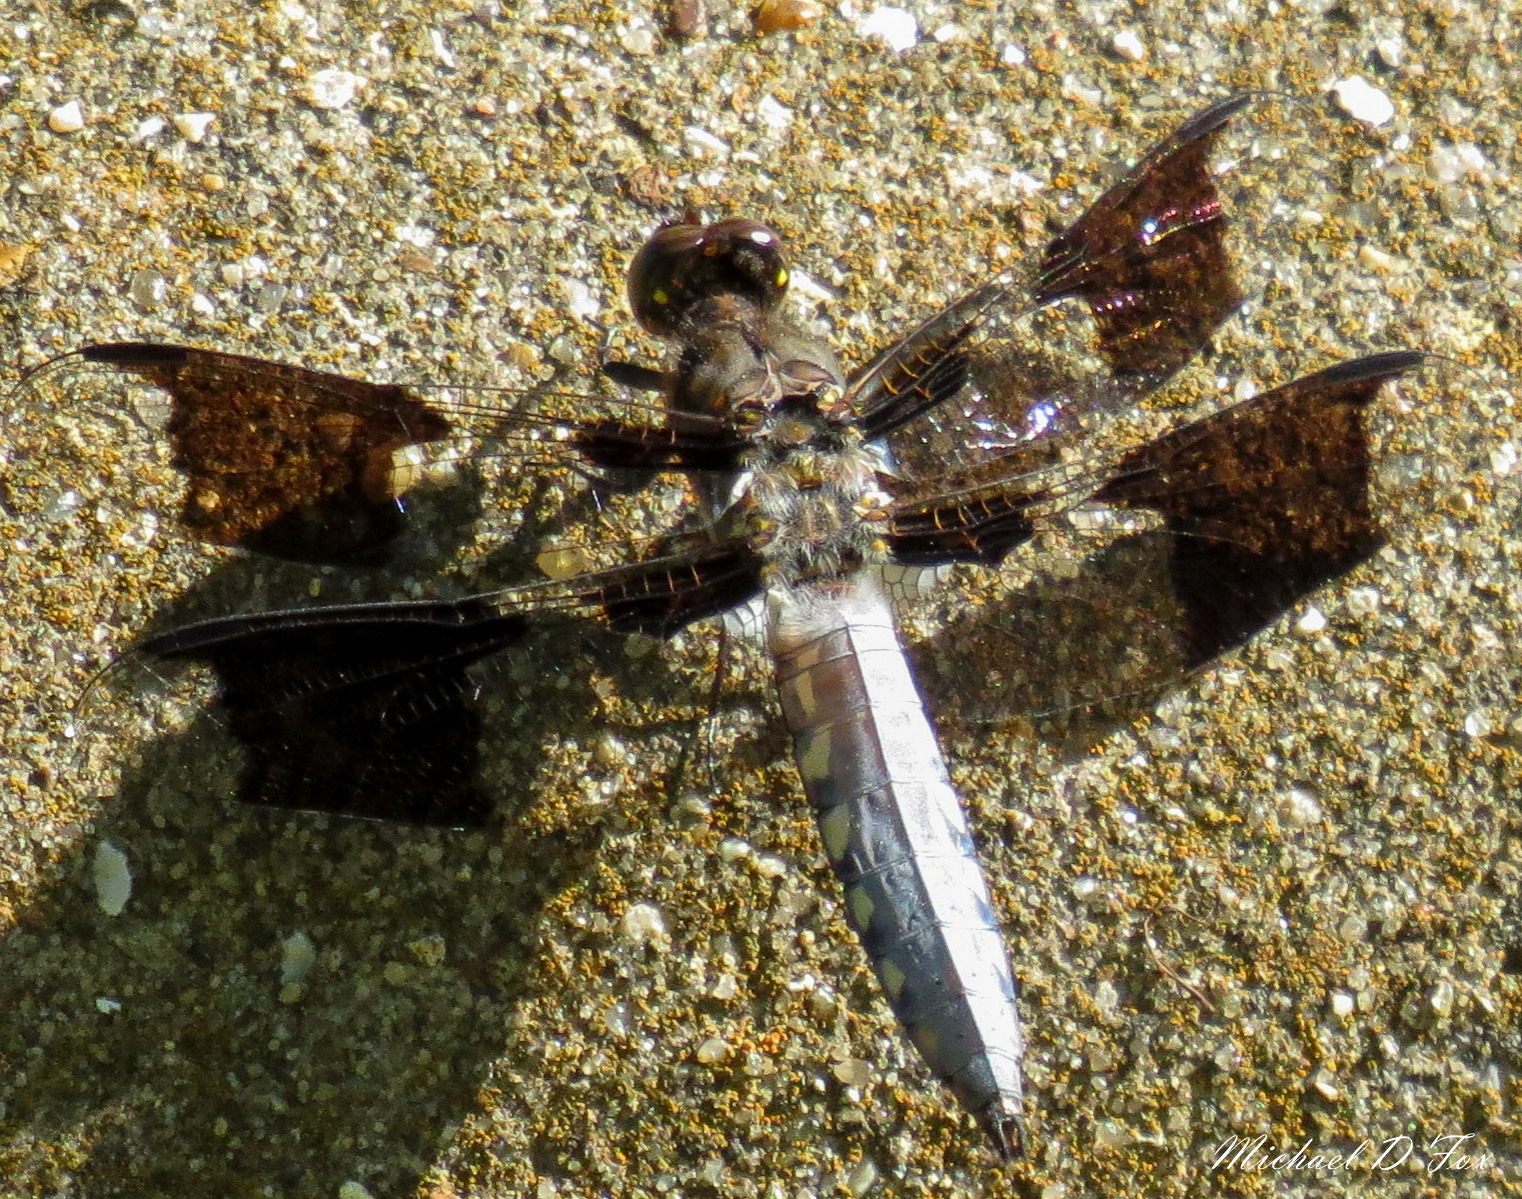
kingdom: Animalia
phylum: Arthropoda
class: Insecta
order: Odonata
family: Libellulidae
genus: Plathemis
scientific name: Plathemis lydia
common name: Common whitetail
